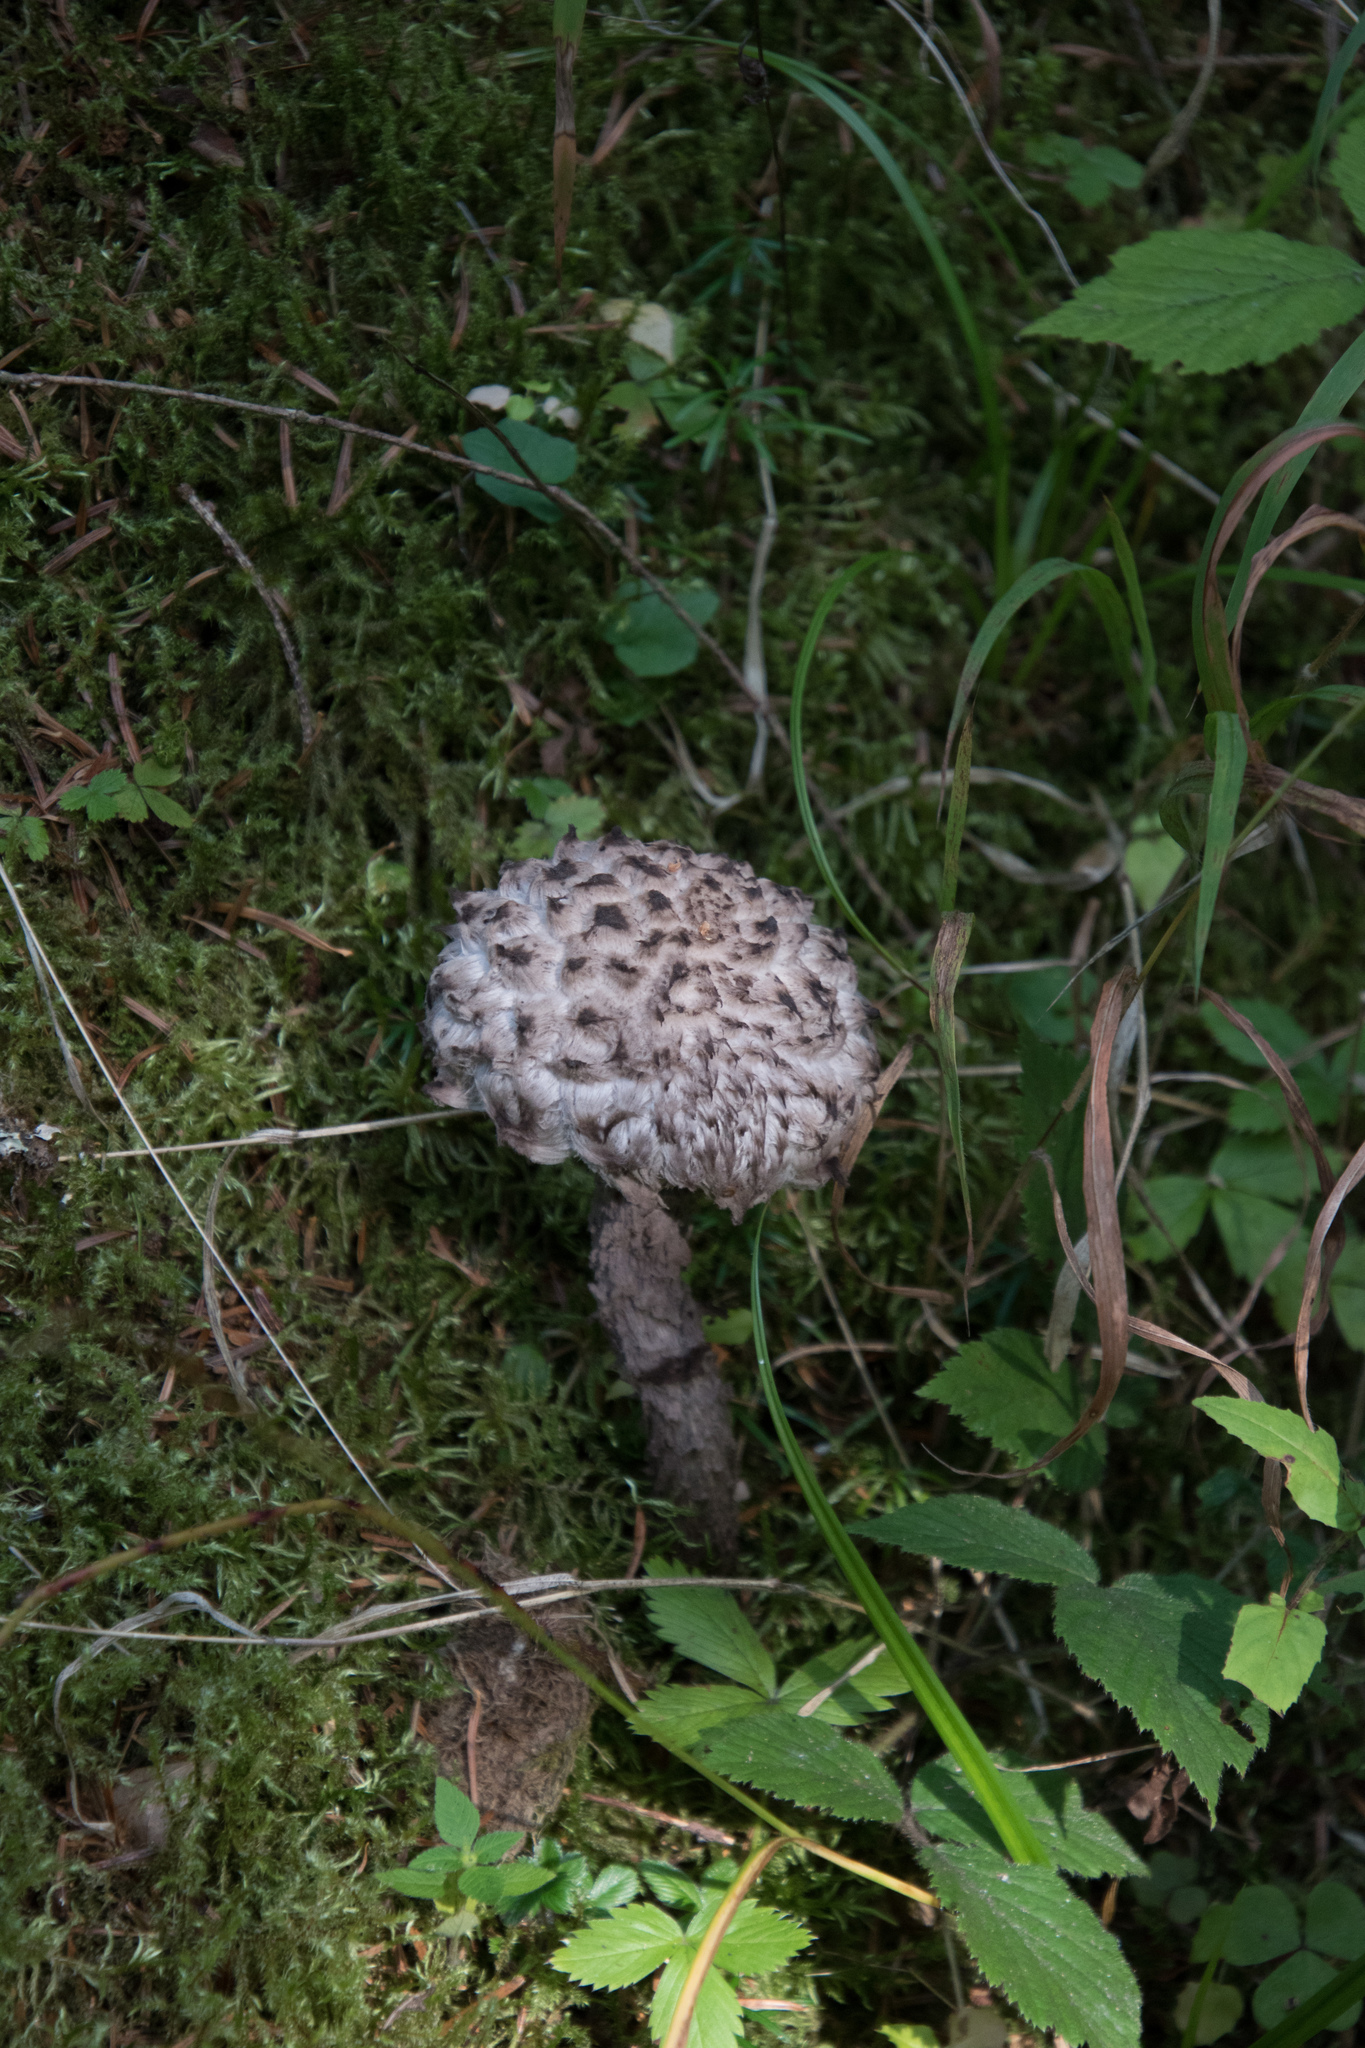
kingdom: Fungi
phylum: Basidiomycota
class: Agaricomycetes
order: Boletales
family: Boletaceae
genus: Strobilomyces
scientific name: Strobilomyces strobilaceus
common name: Old man of the woods
